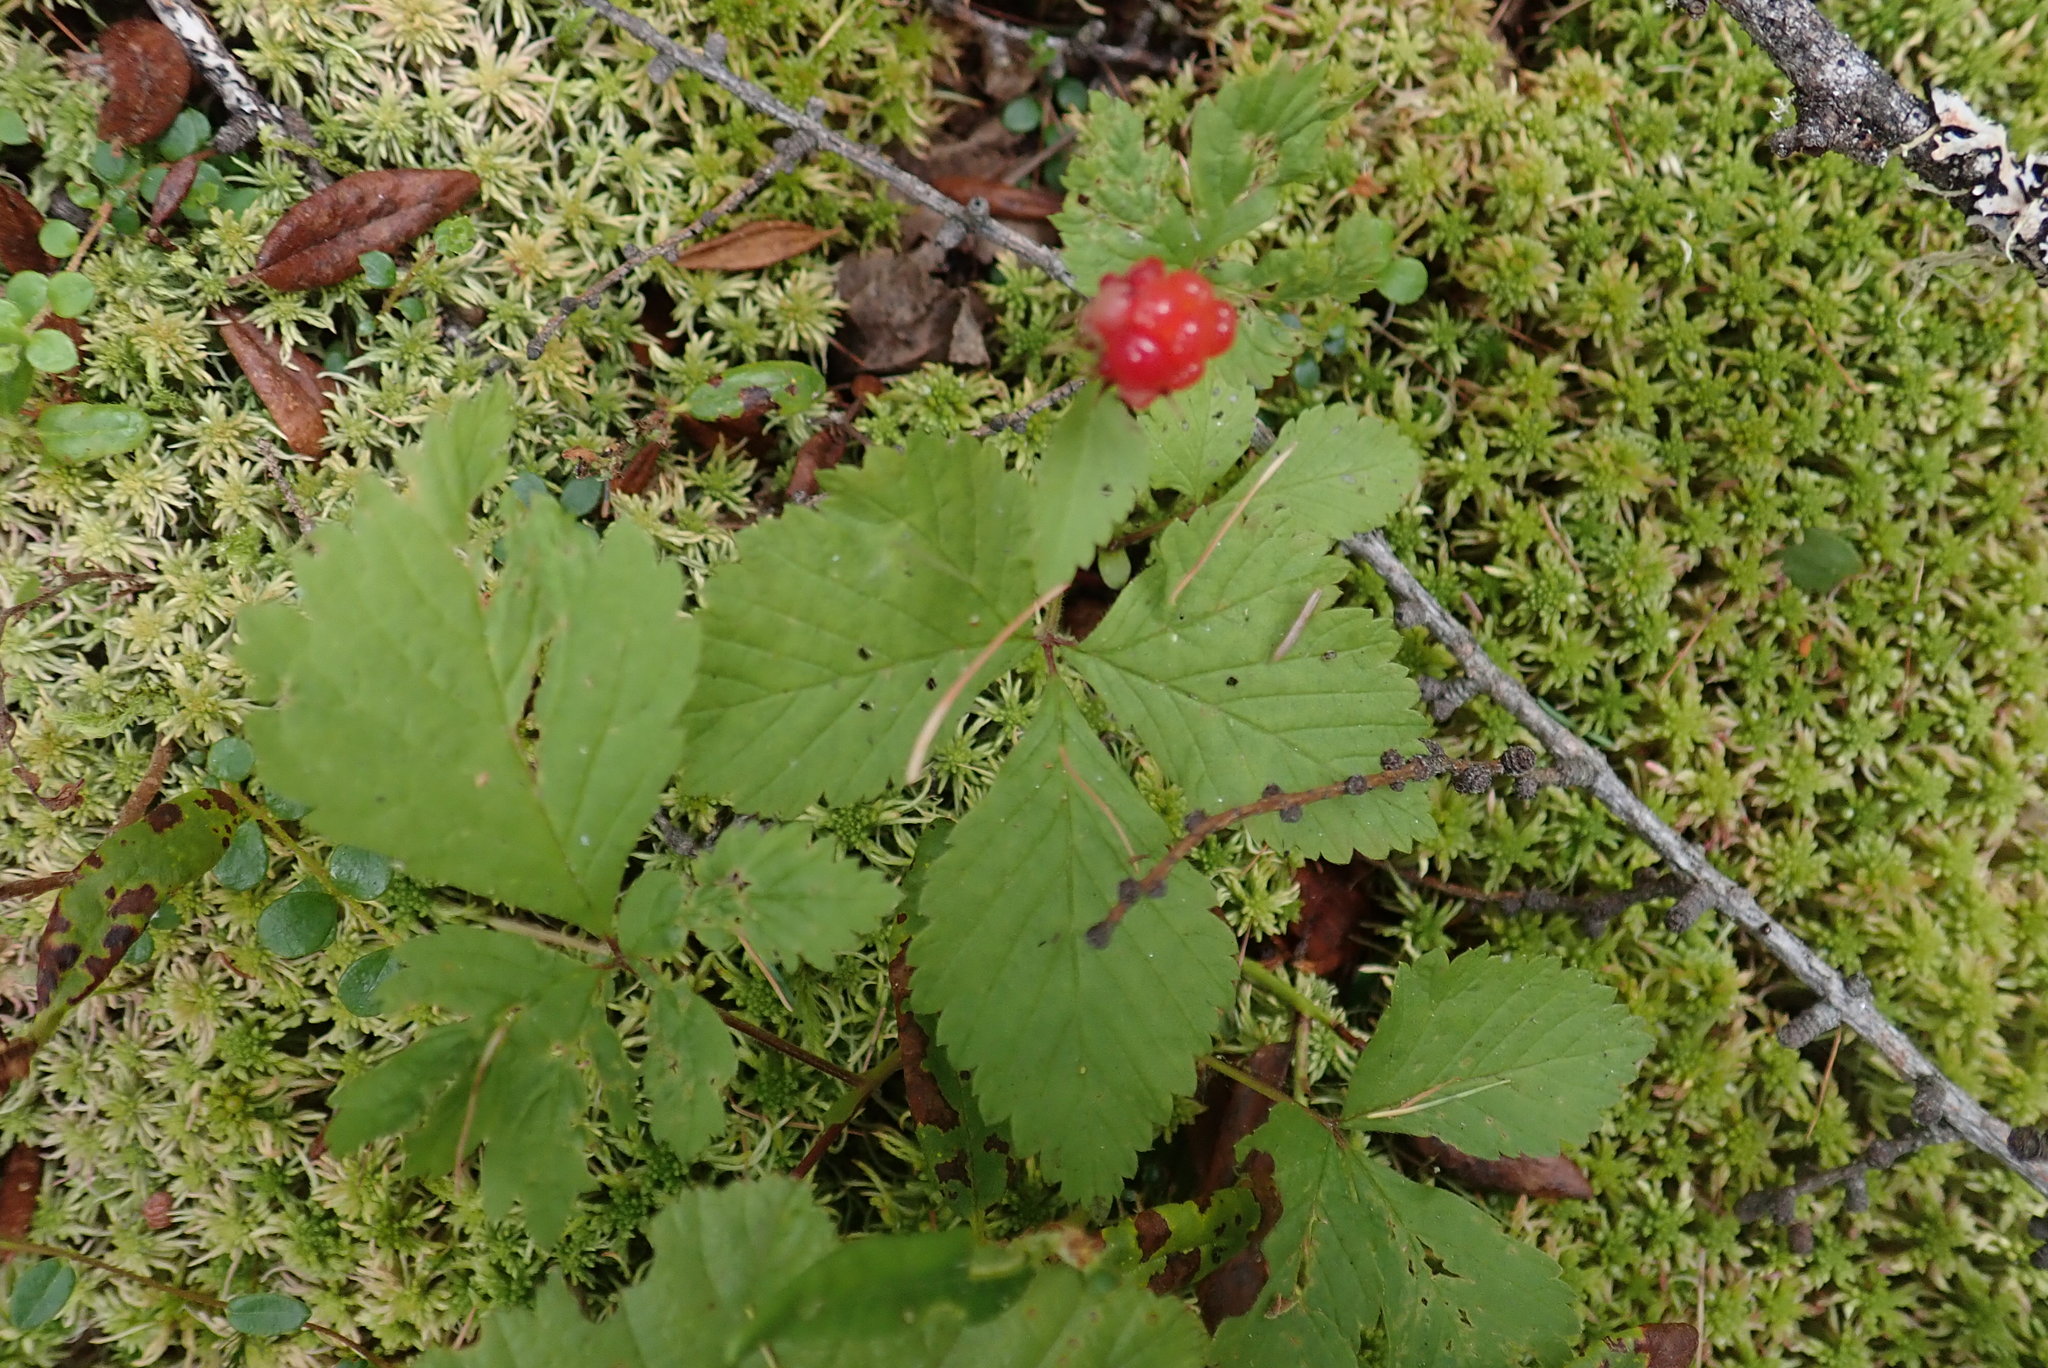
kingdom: Plantae
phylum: Tracheophyta
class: Magnoliopsida
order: Rosales
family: Rosaceae
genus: Rubus
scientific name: Rubus pubescens
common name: Dwarf raspberry
